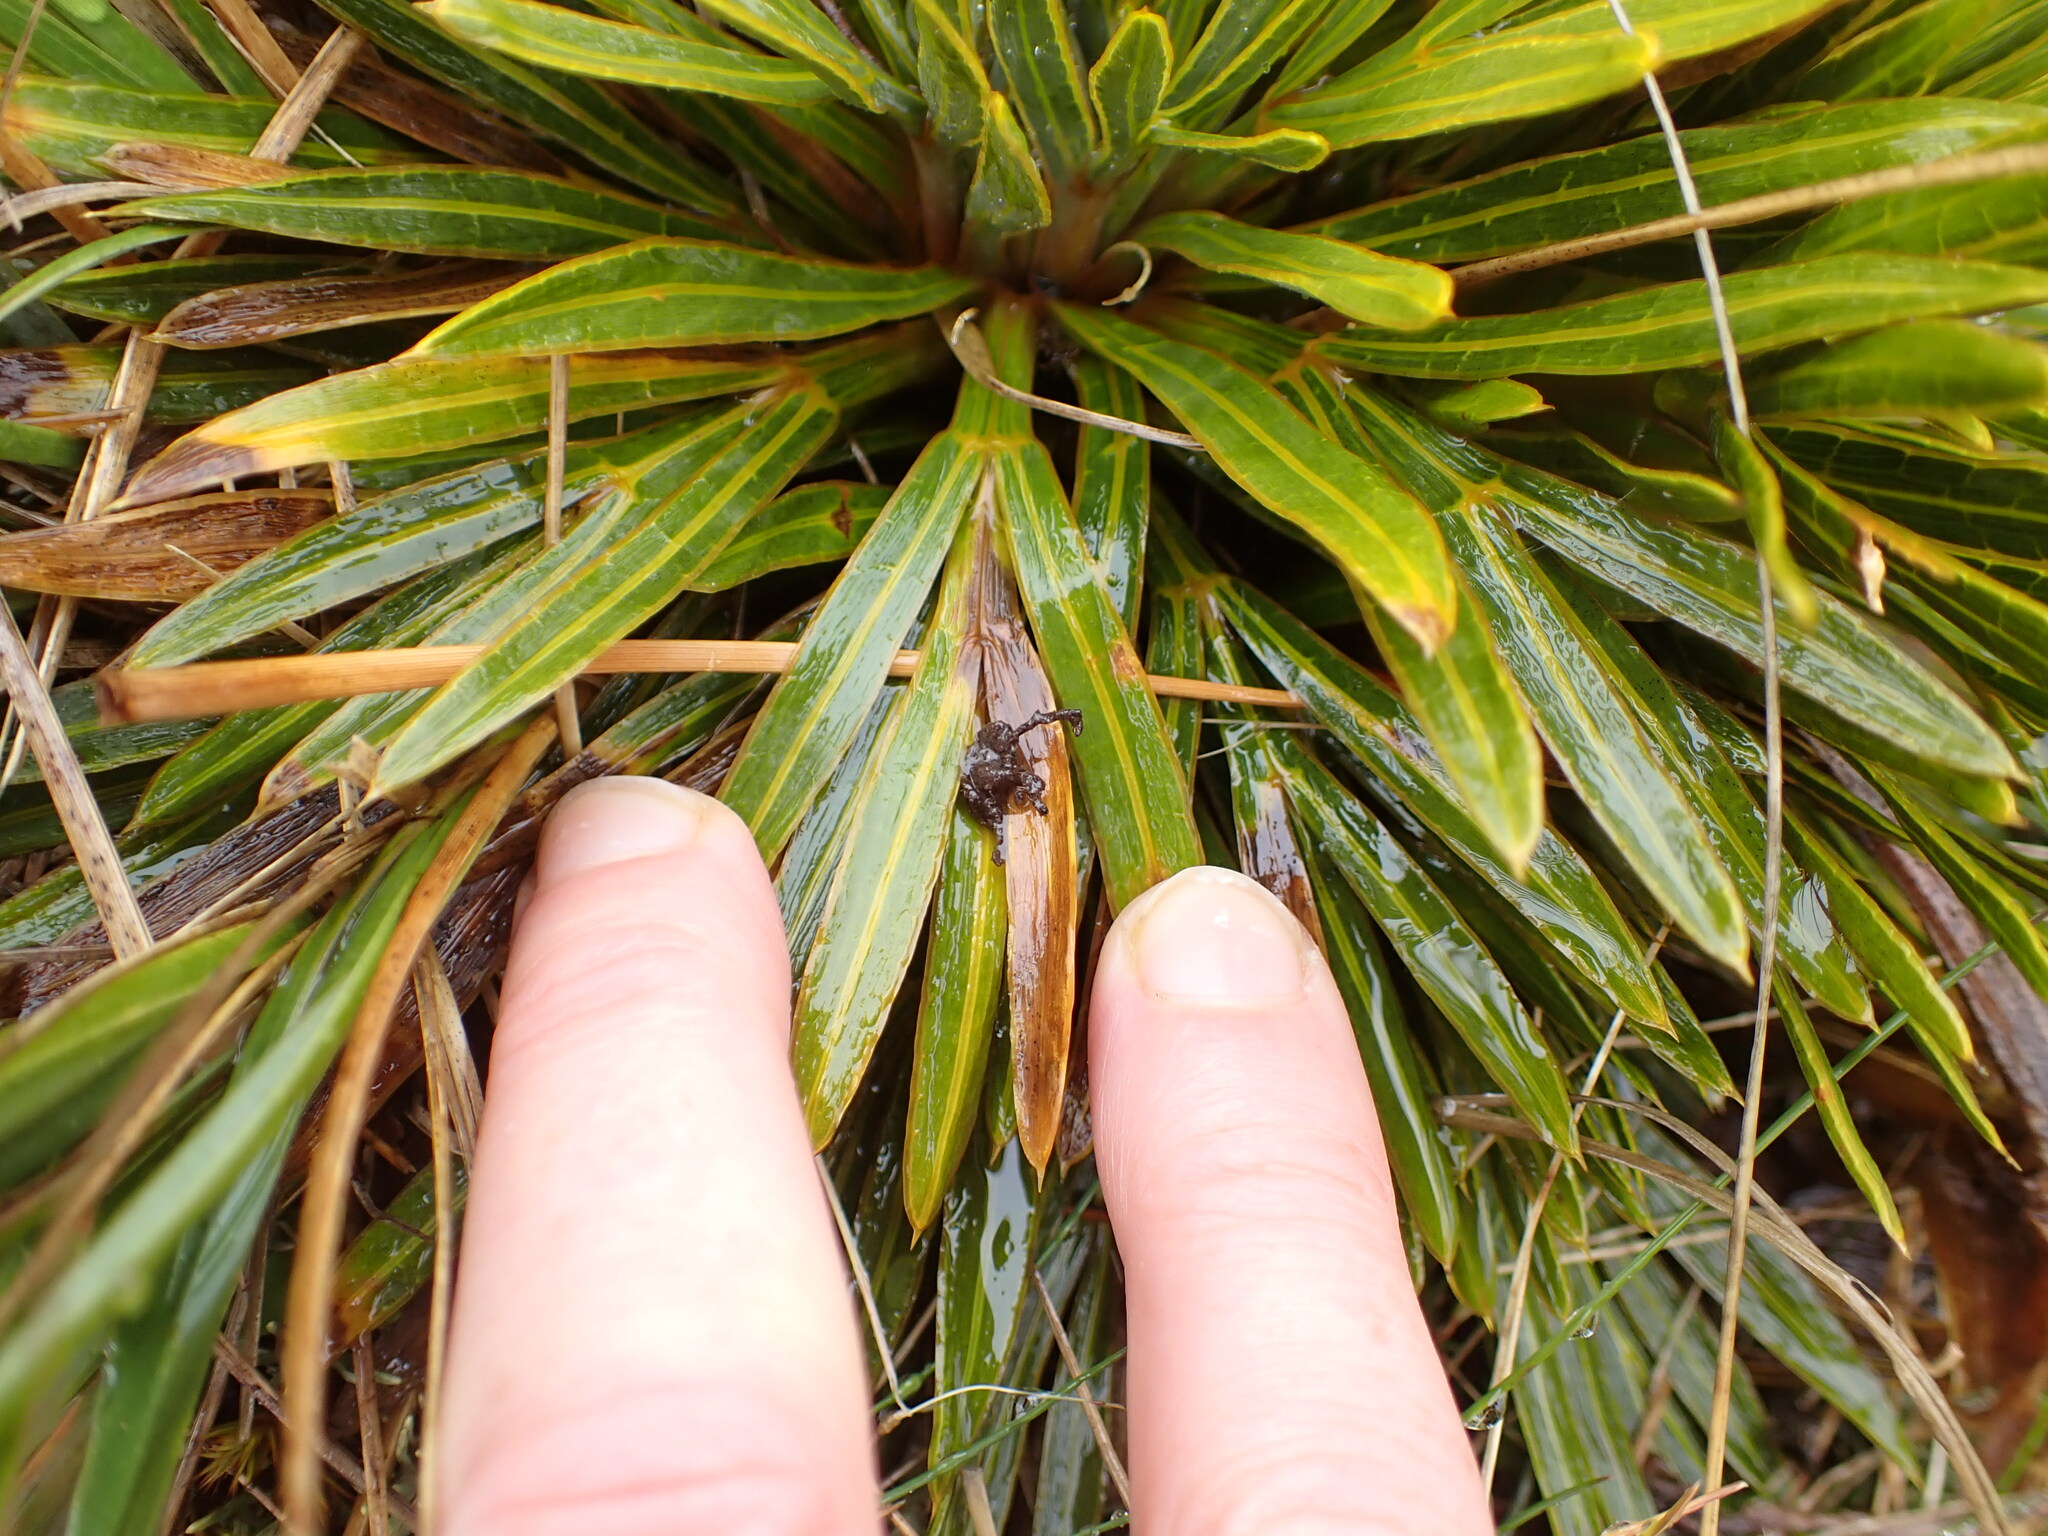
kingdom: Plantae
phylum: Tracheophyta
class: Magnoliopsida
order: Apiales
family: Apiaceae
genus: Aciphylla
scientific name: Aciphylla crosby-smithii
